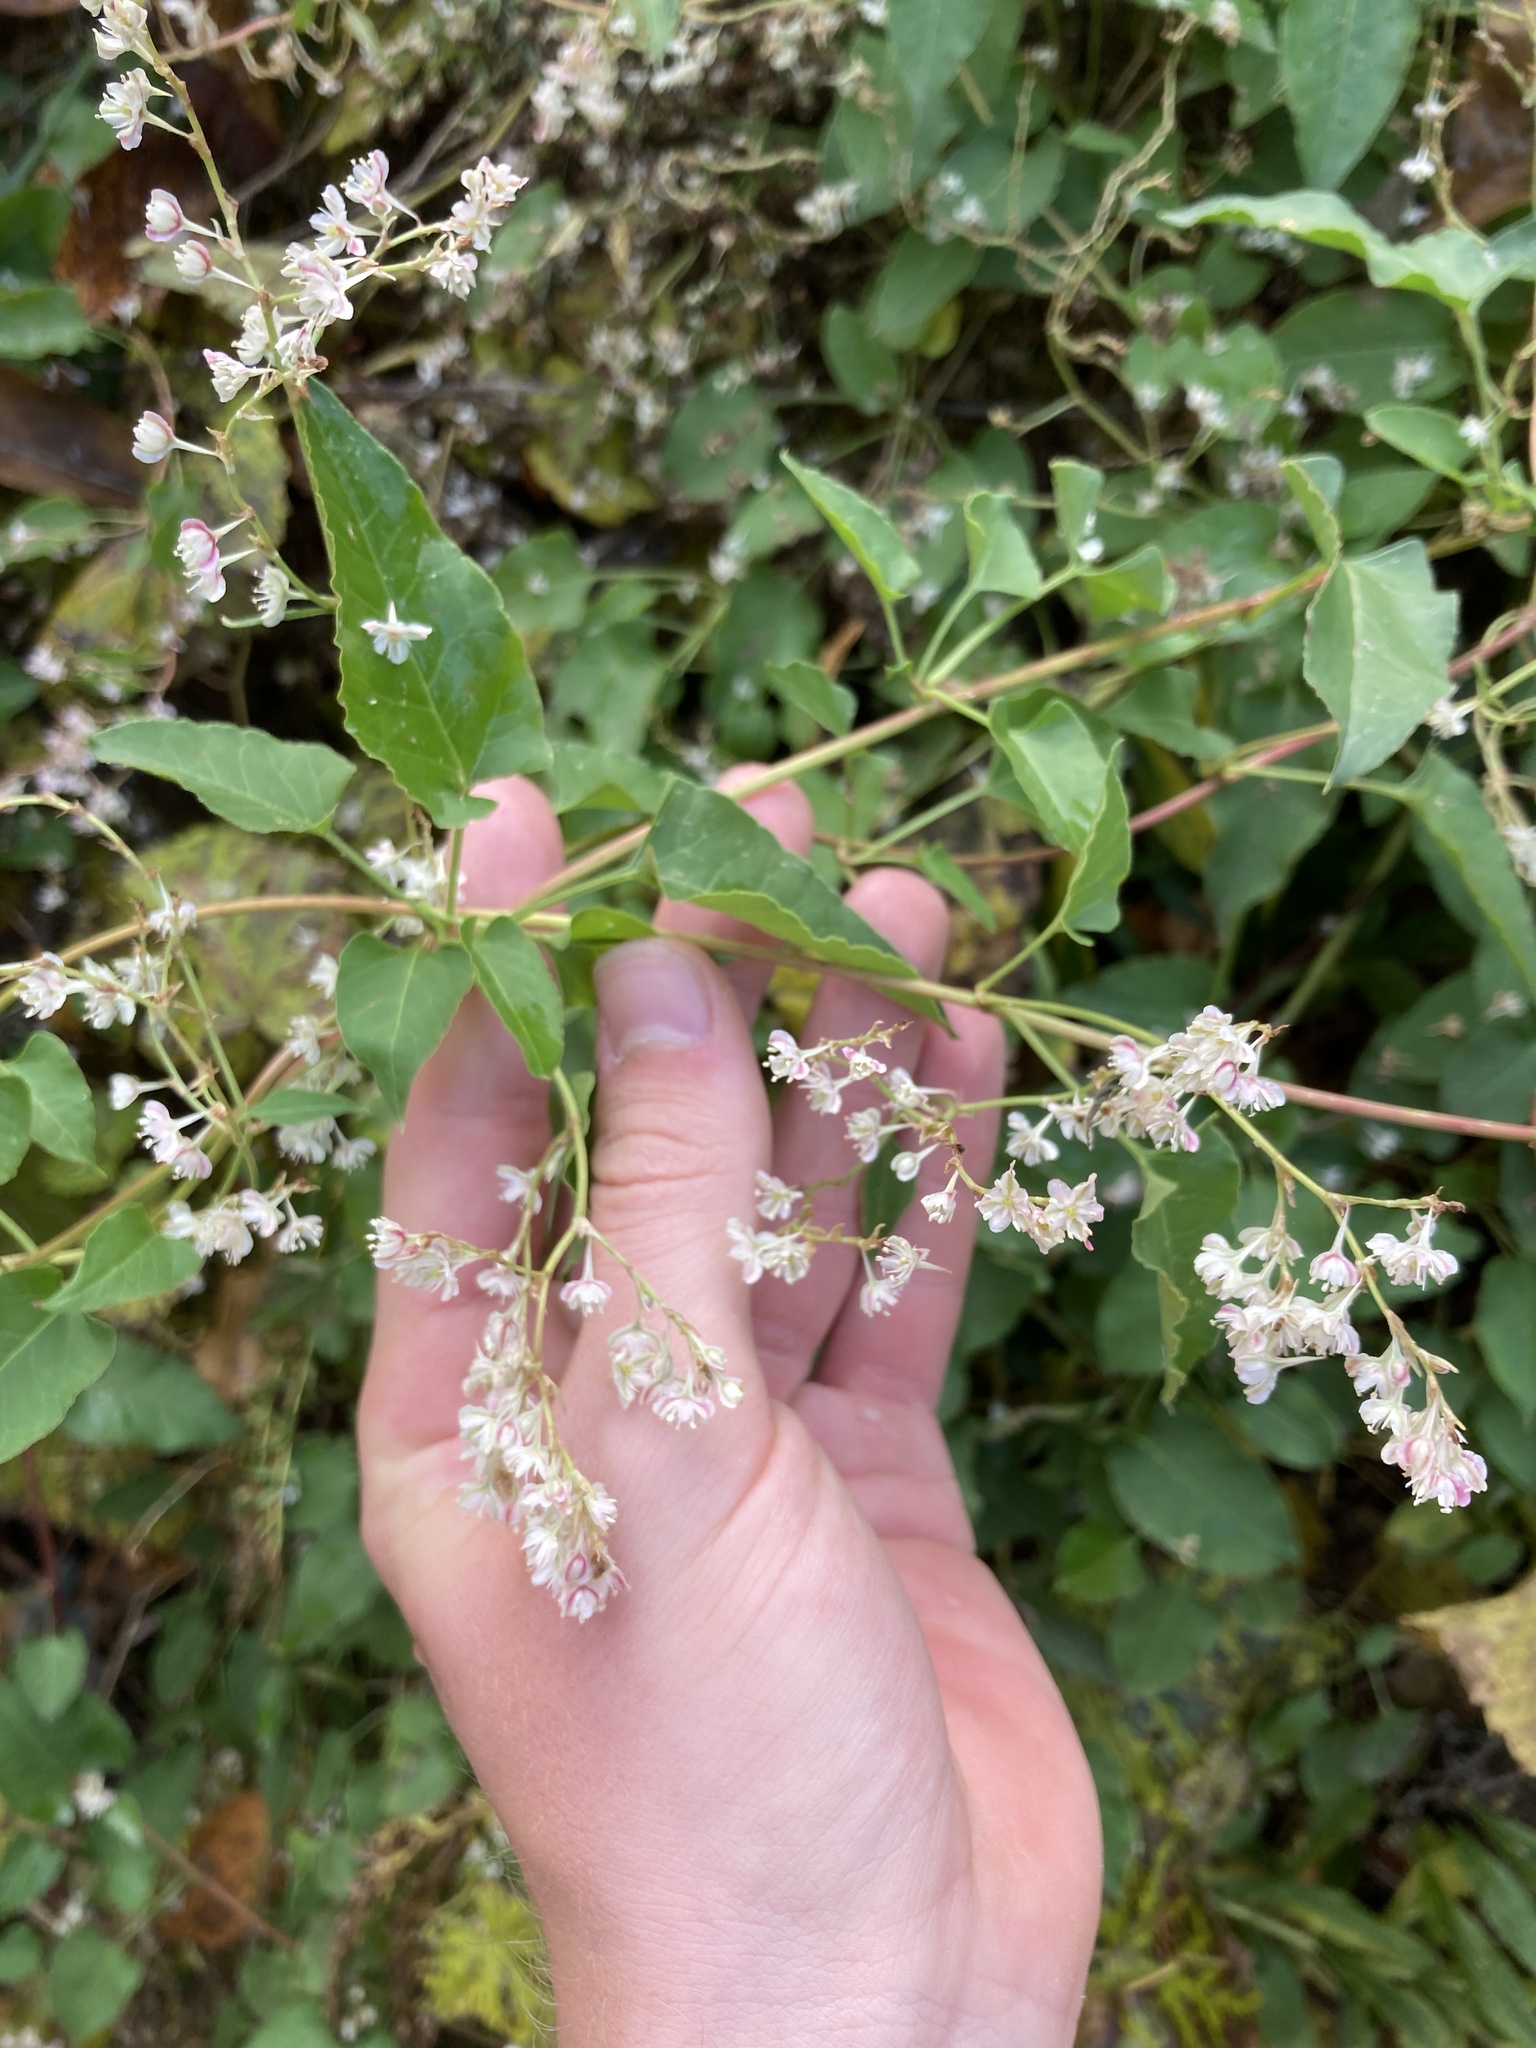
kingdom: Plantae
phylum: Tracheophyta
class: Magnoliopsida
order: Caryophyllales
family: Polygonaceae
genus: Fallopia
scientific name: Fallopia baldschuanica
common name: Russian-vine
